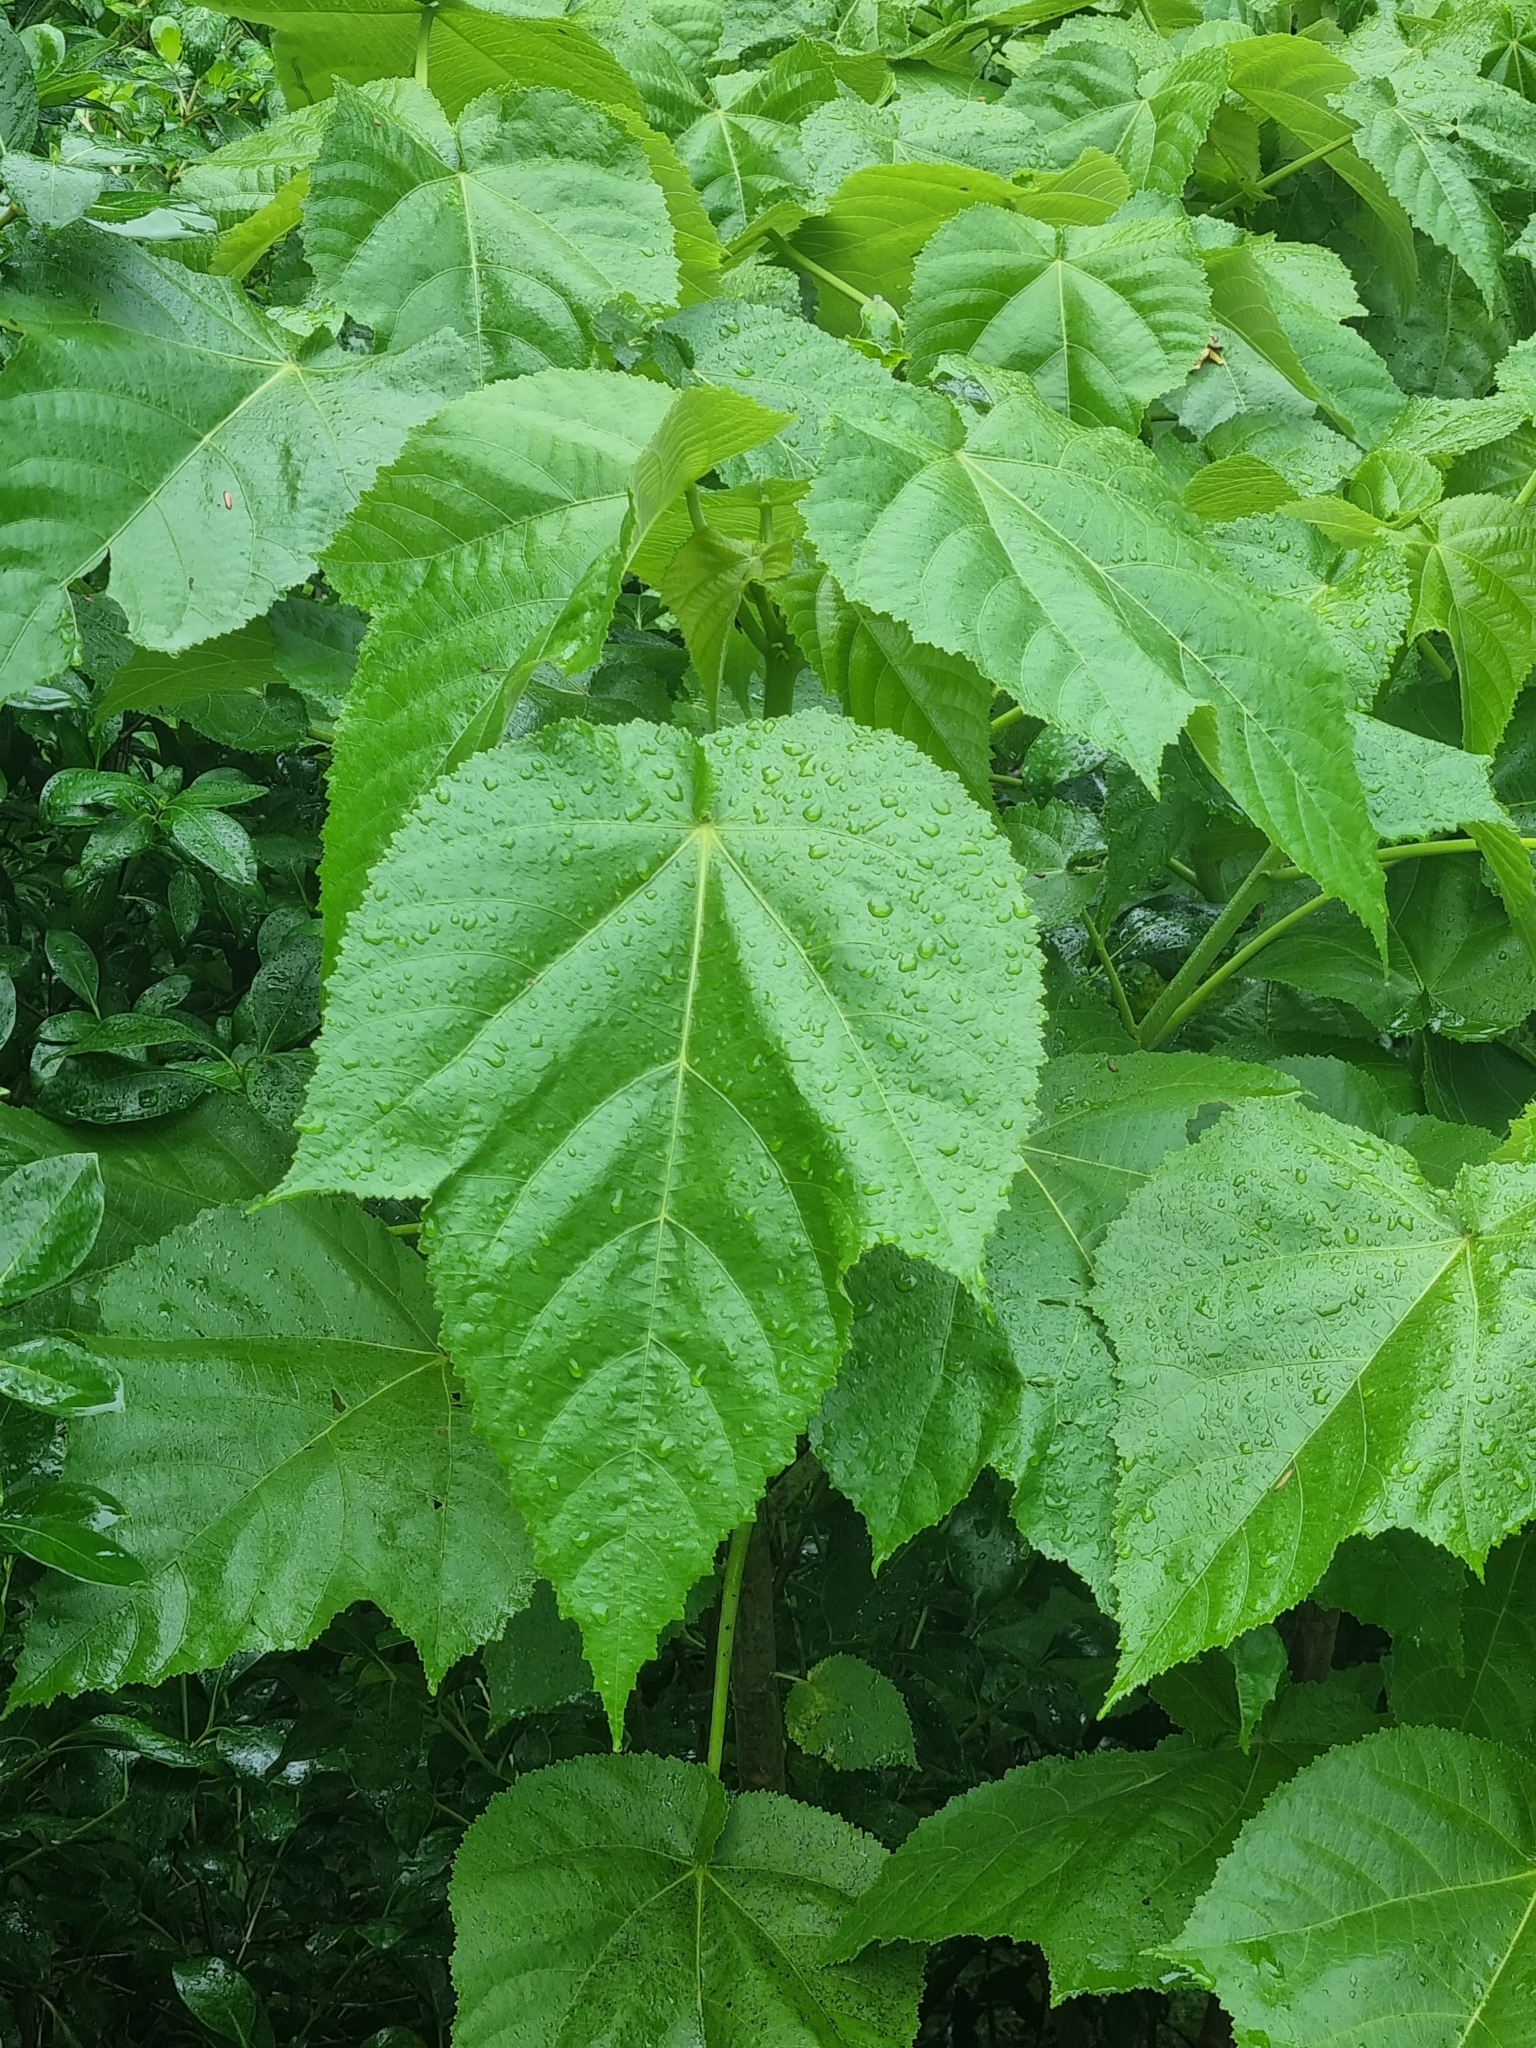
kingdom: Plantae
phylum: Tracheophyta
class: Magnoliopsida
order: Malvales
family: Malvaceae
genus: Entelea
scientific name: Entelea arborescens
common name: New zealand-mulberry
